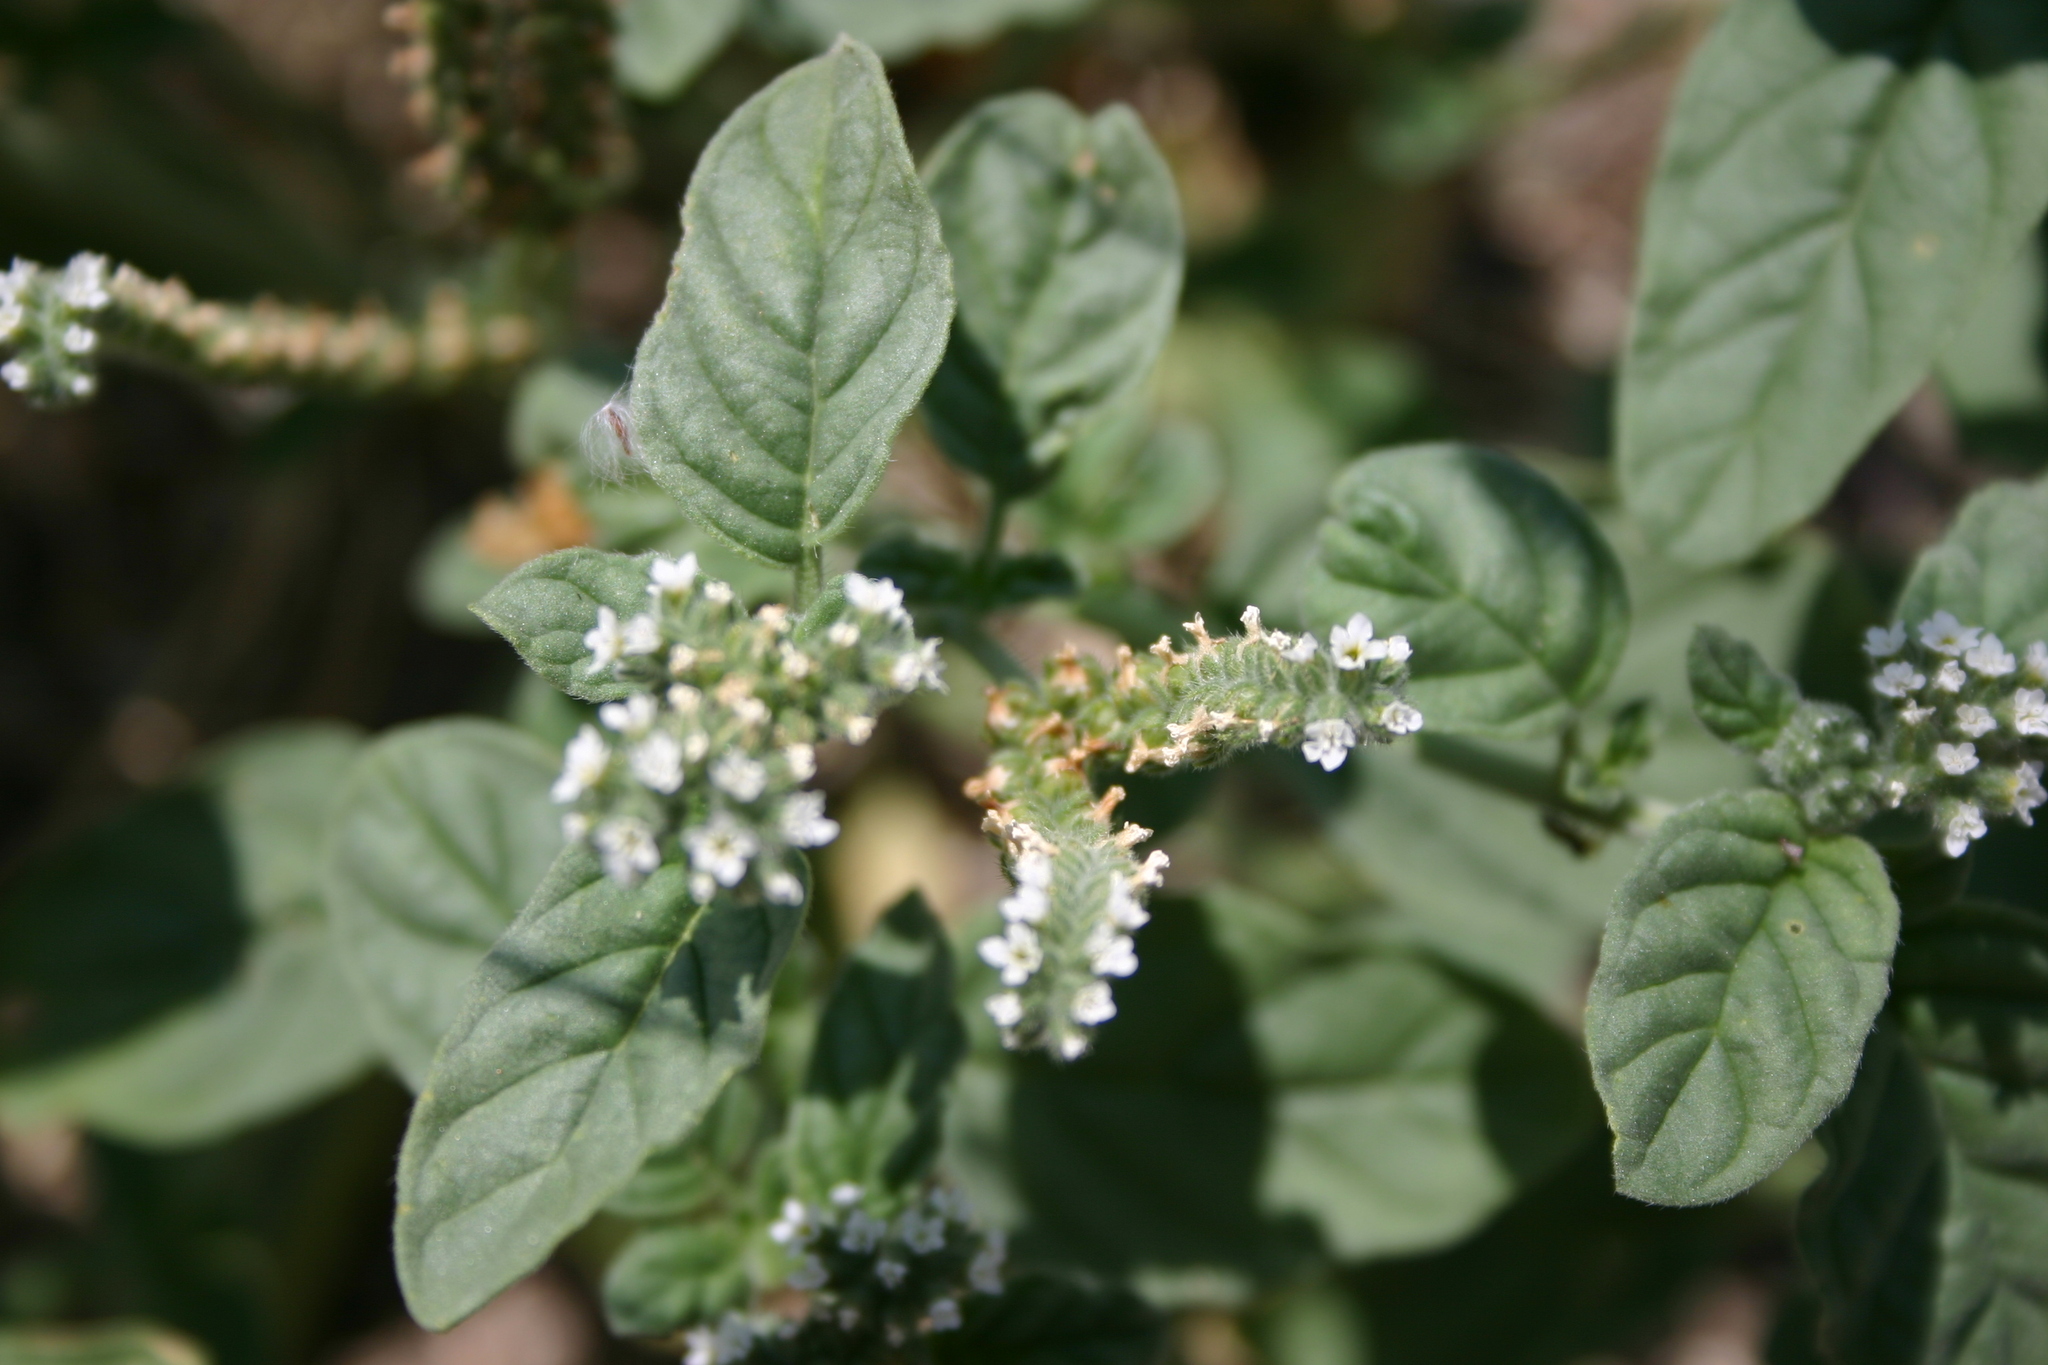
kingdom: Plantae
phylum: Tracheophyta
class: Magnoliopsida
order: Boraginales
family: Heliotropiaceae
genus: Heliotropium
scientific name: Heliotropium europaeum
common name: European heliotrope
